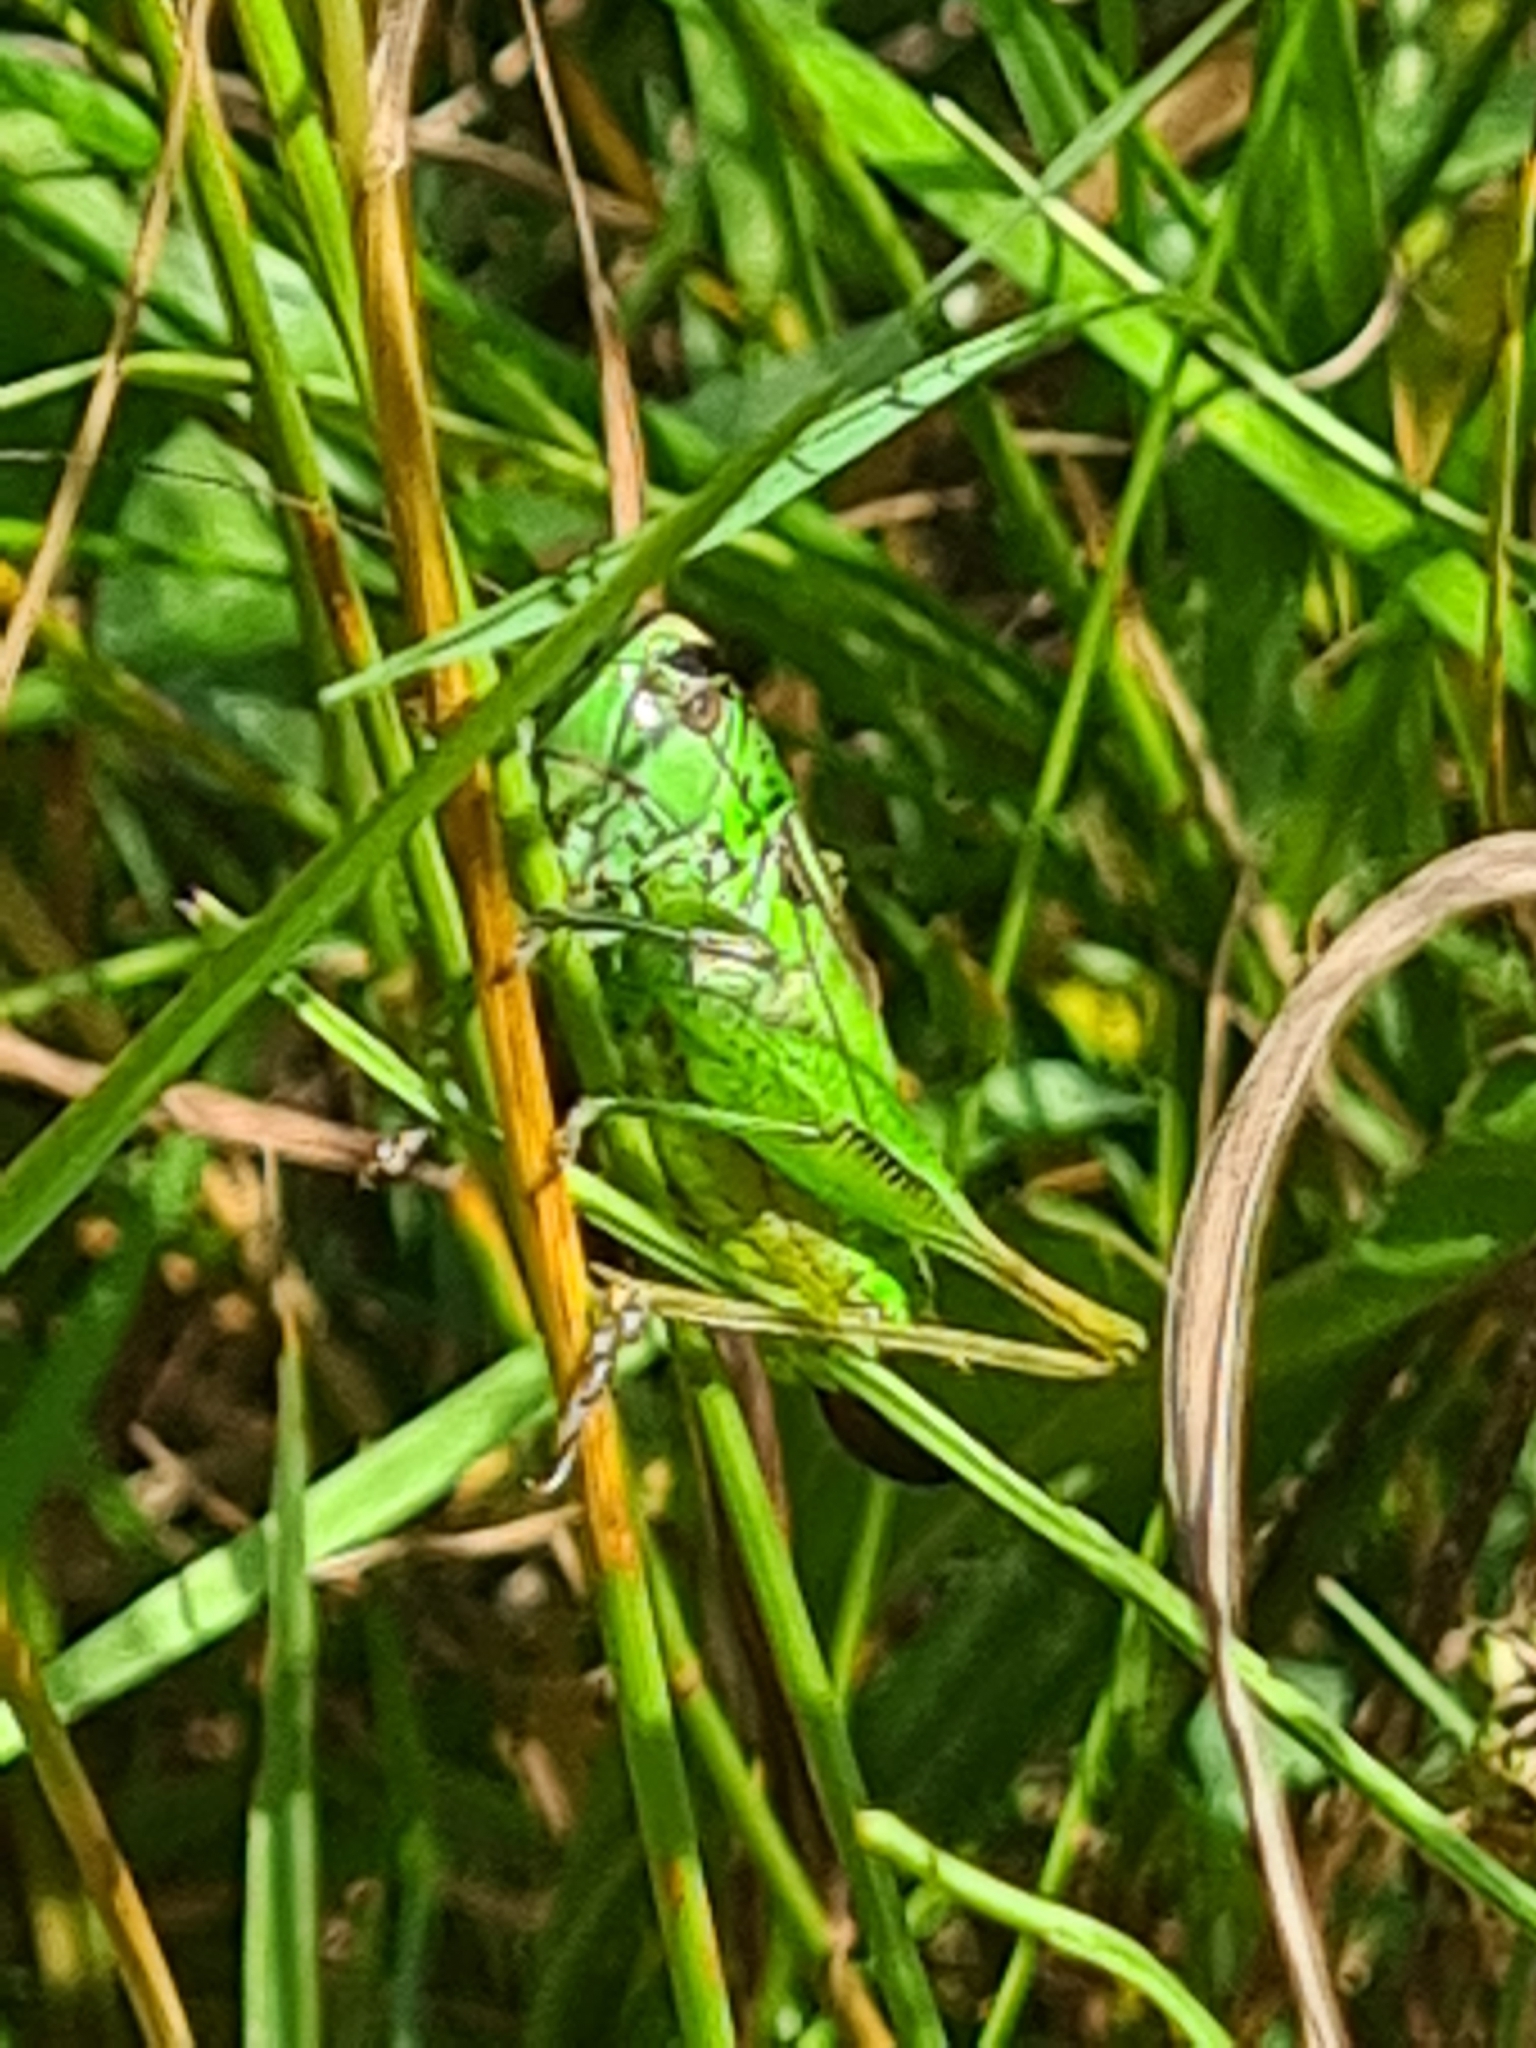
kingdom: Animalia
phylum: Arthropoda
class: Insecta
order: Orthoptera
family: Tettigoniidae
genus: Roeseliana
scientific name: Roeseliana roeselii
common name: Roesel's bush cricket
